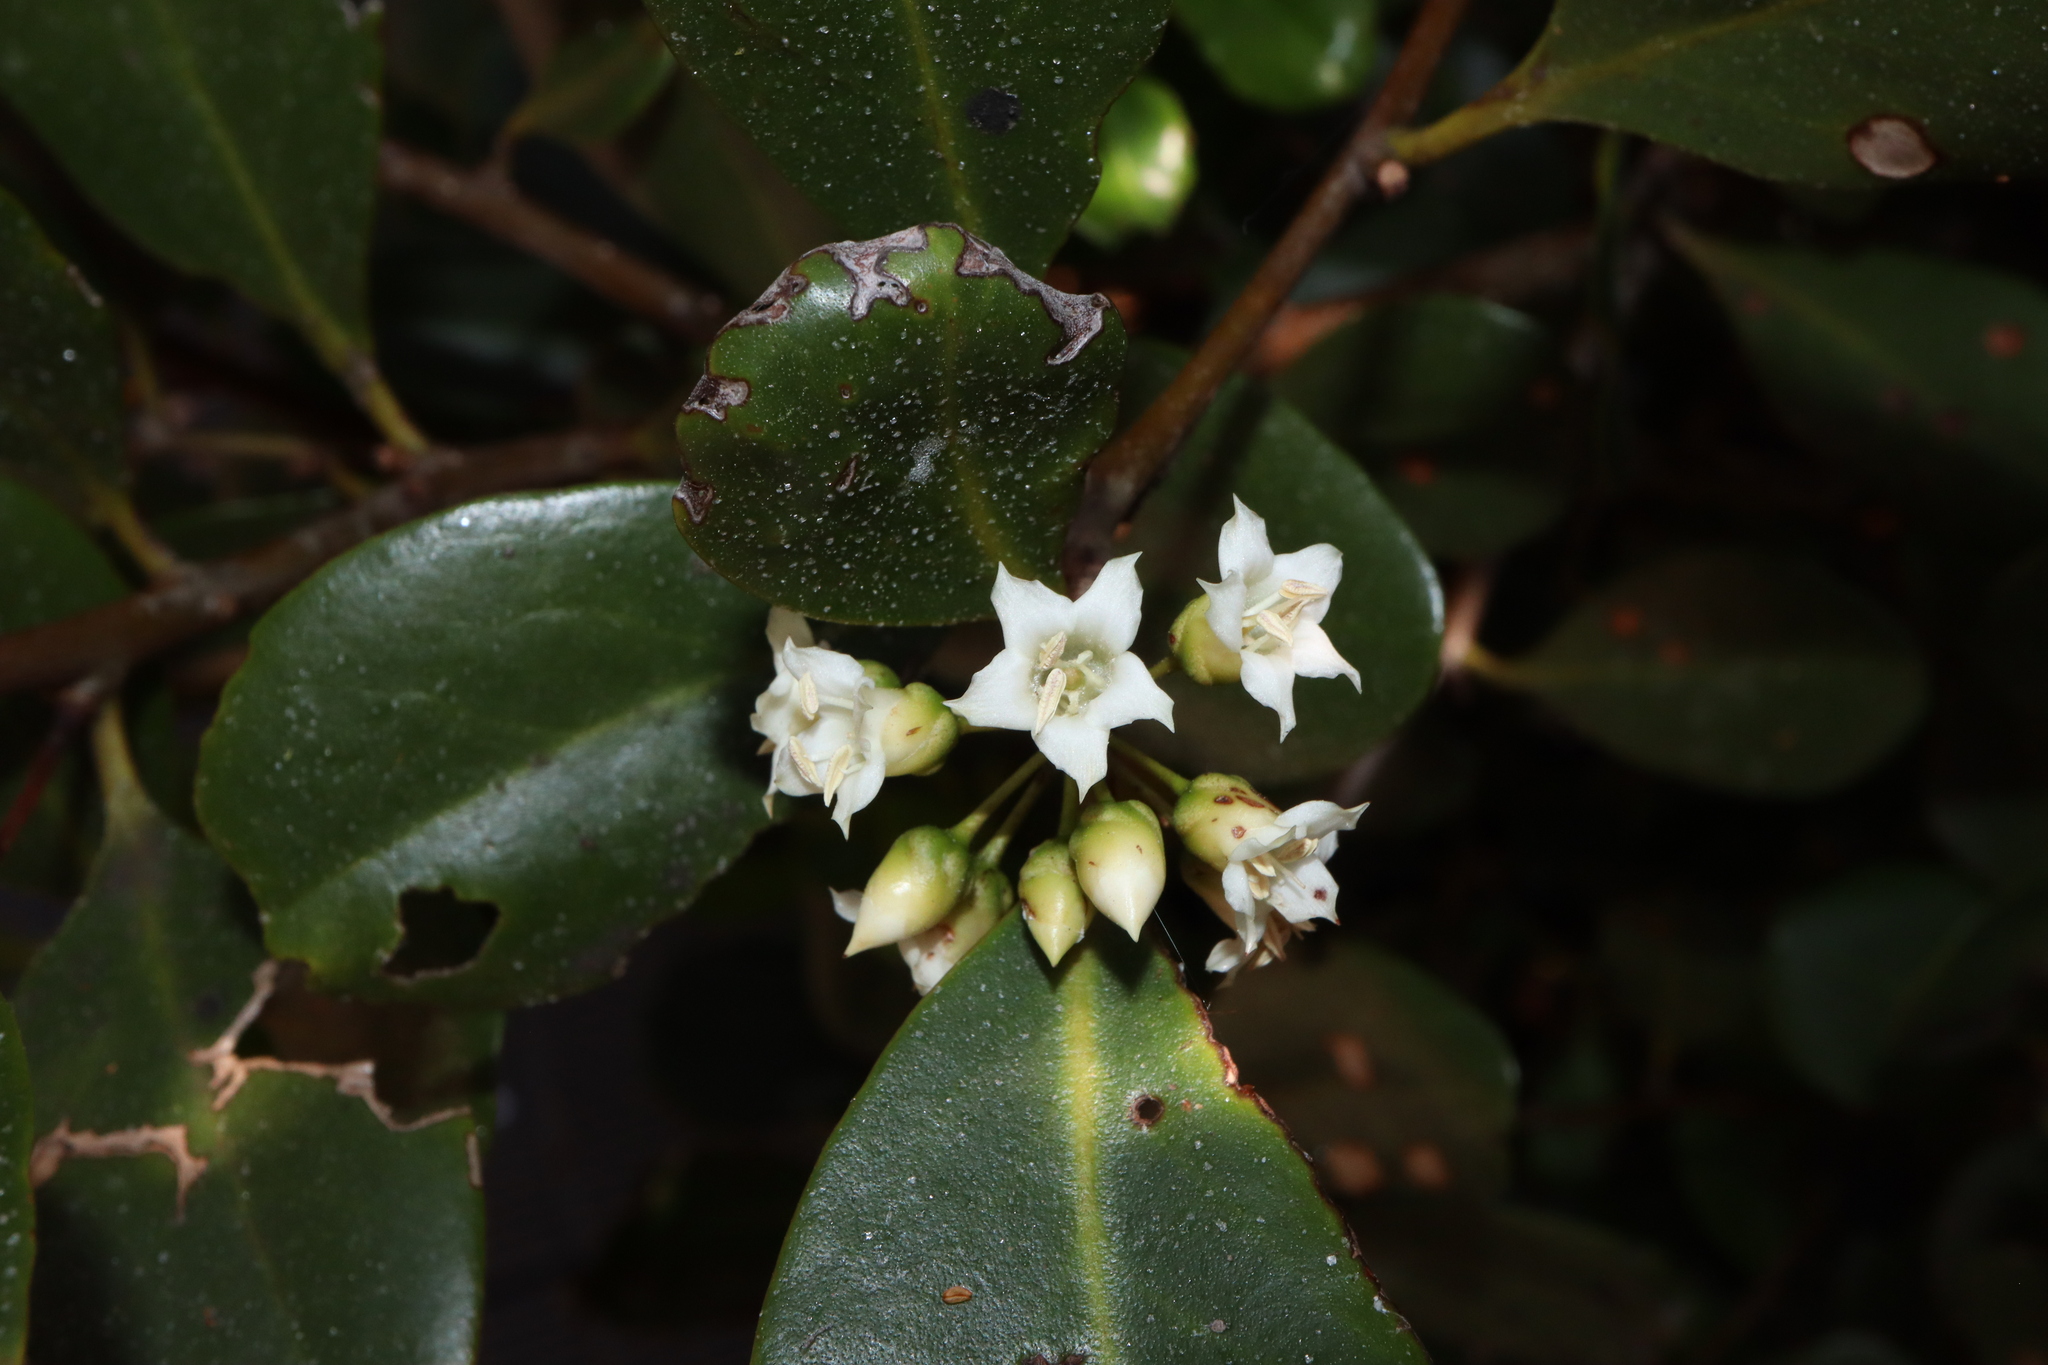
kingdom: Plantae
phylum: Tracheophyta
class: Magnoliopsida
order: Ericales
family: Primulaceae
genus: Aegiceras
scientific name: Aegiceras corniculatum
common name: River mangrove
